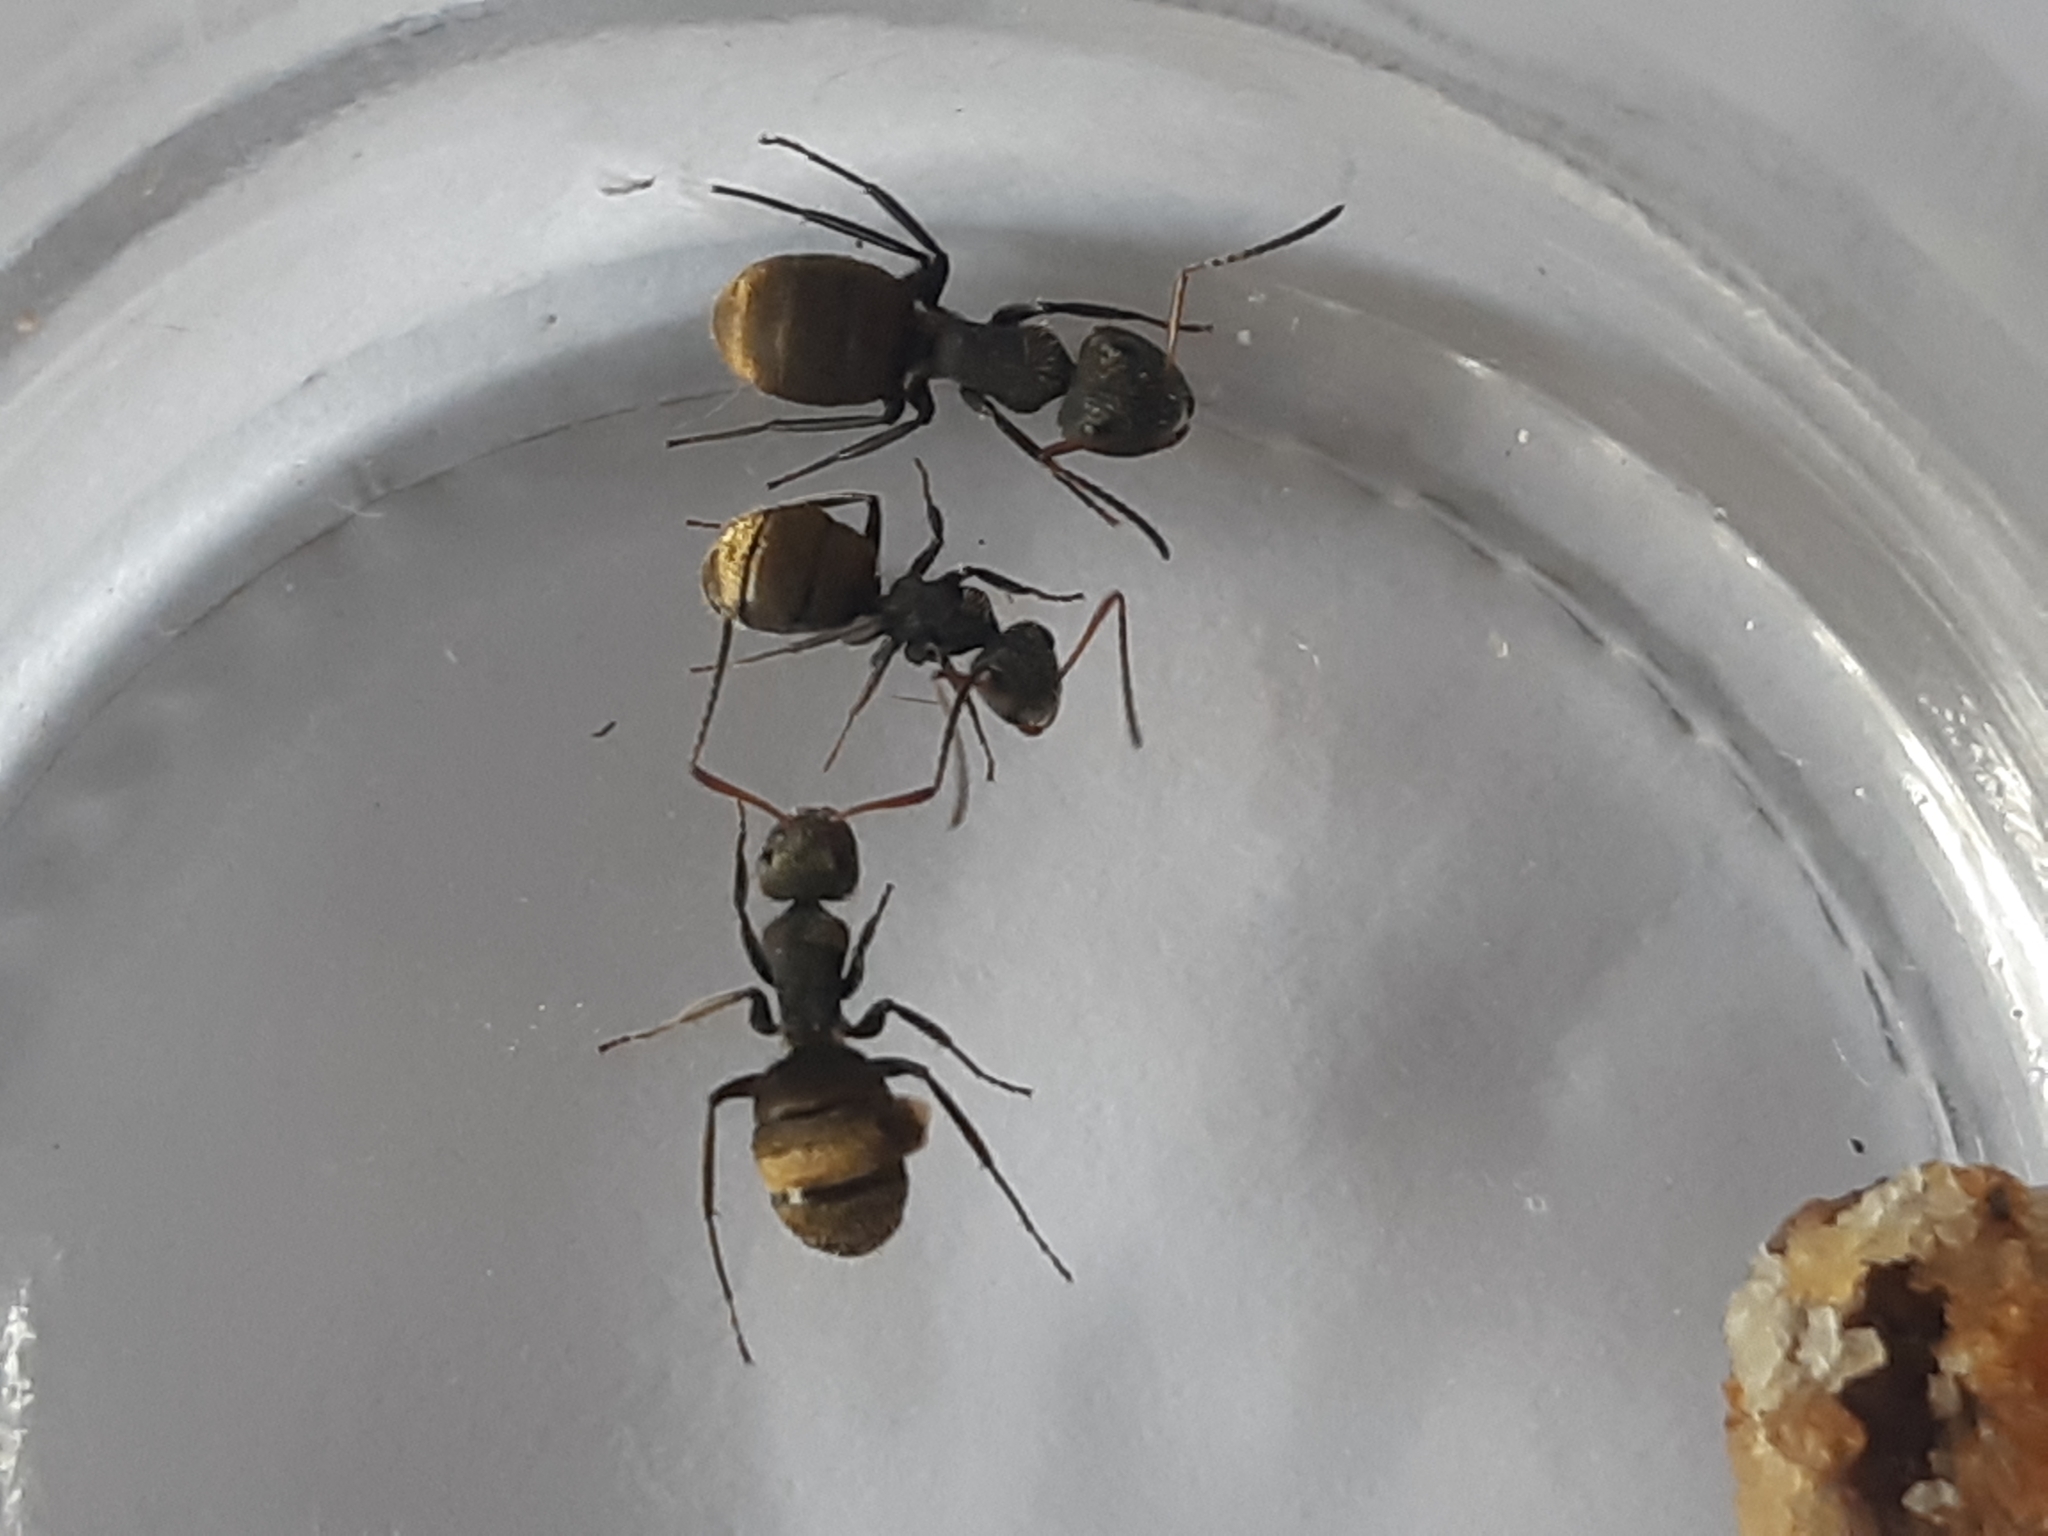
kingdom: Animalia
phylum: Arthropoda
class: Insecta
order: Hymenoptera
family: Formicidae
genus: Camponotus
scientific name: Camponotus mus
